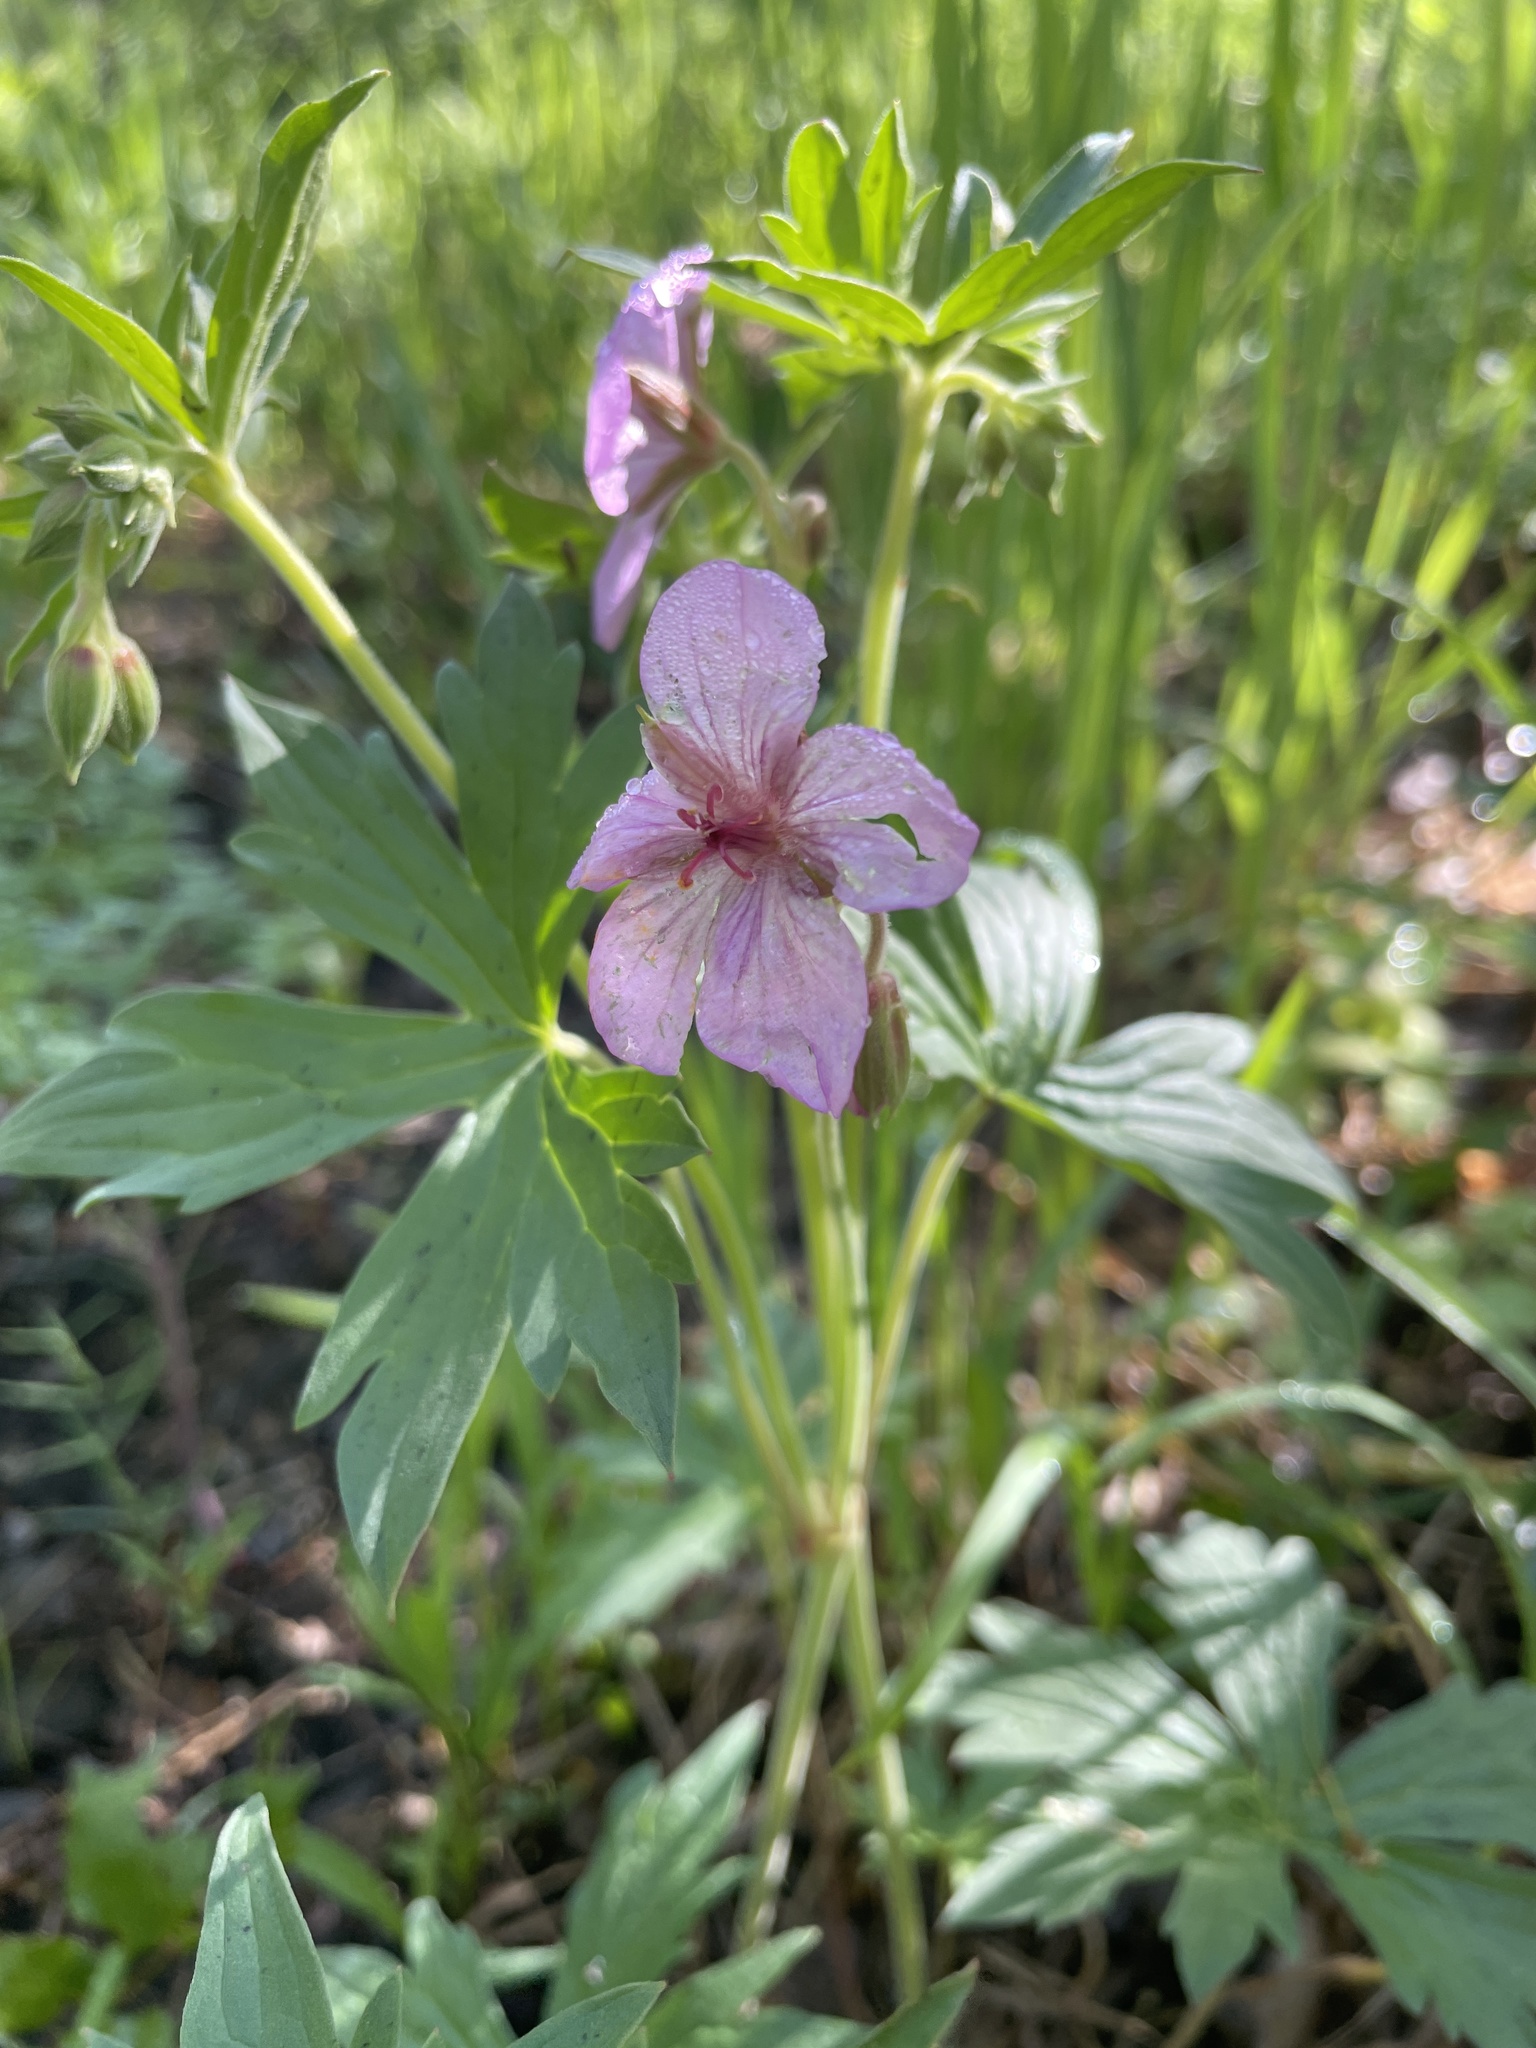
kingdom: Plantae
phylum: Tracheophyta
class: Magnoliopsida
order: Geraniales
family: Geraniaceae
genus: Geranium
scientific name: Geranium viscosissimum
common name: Purple geranium
